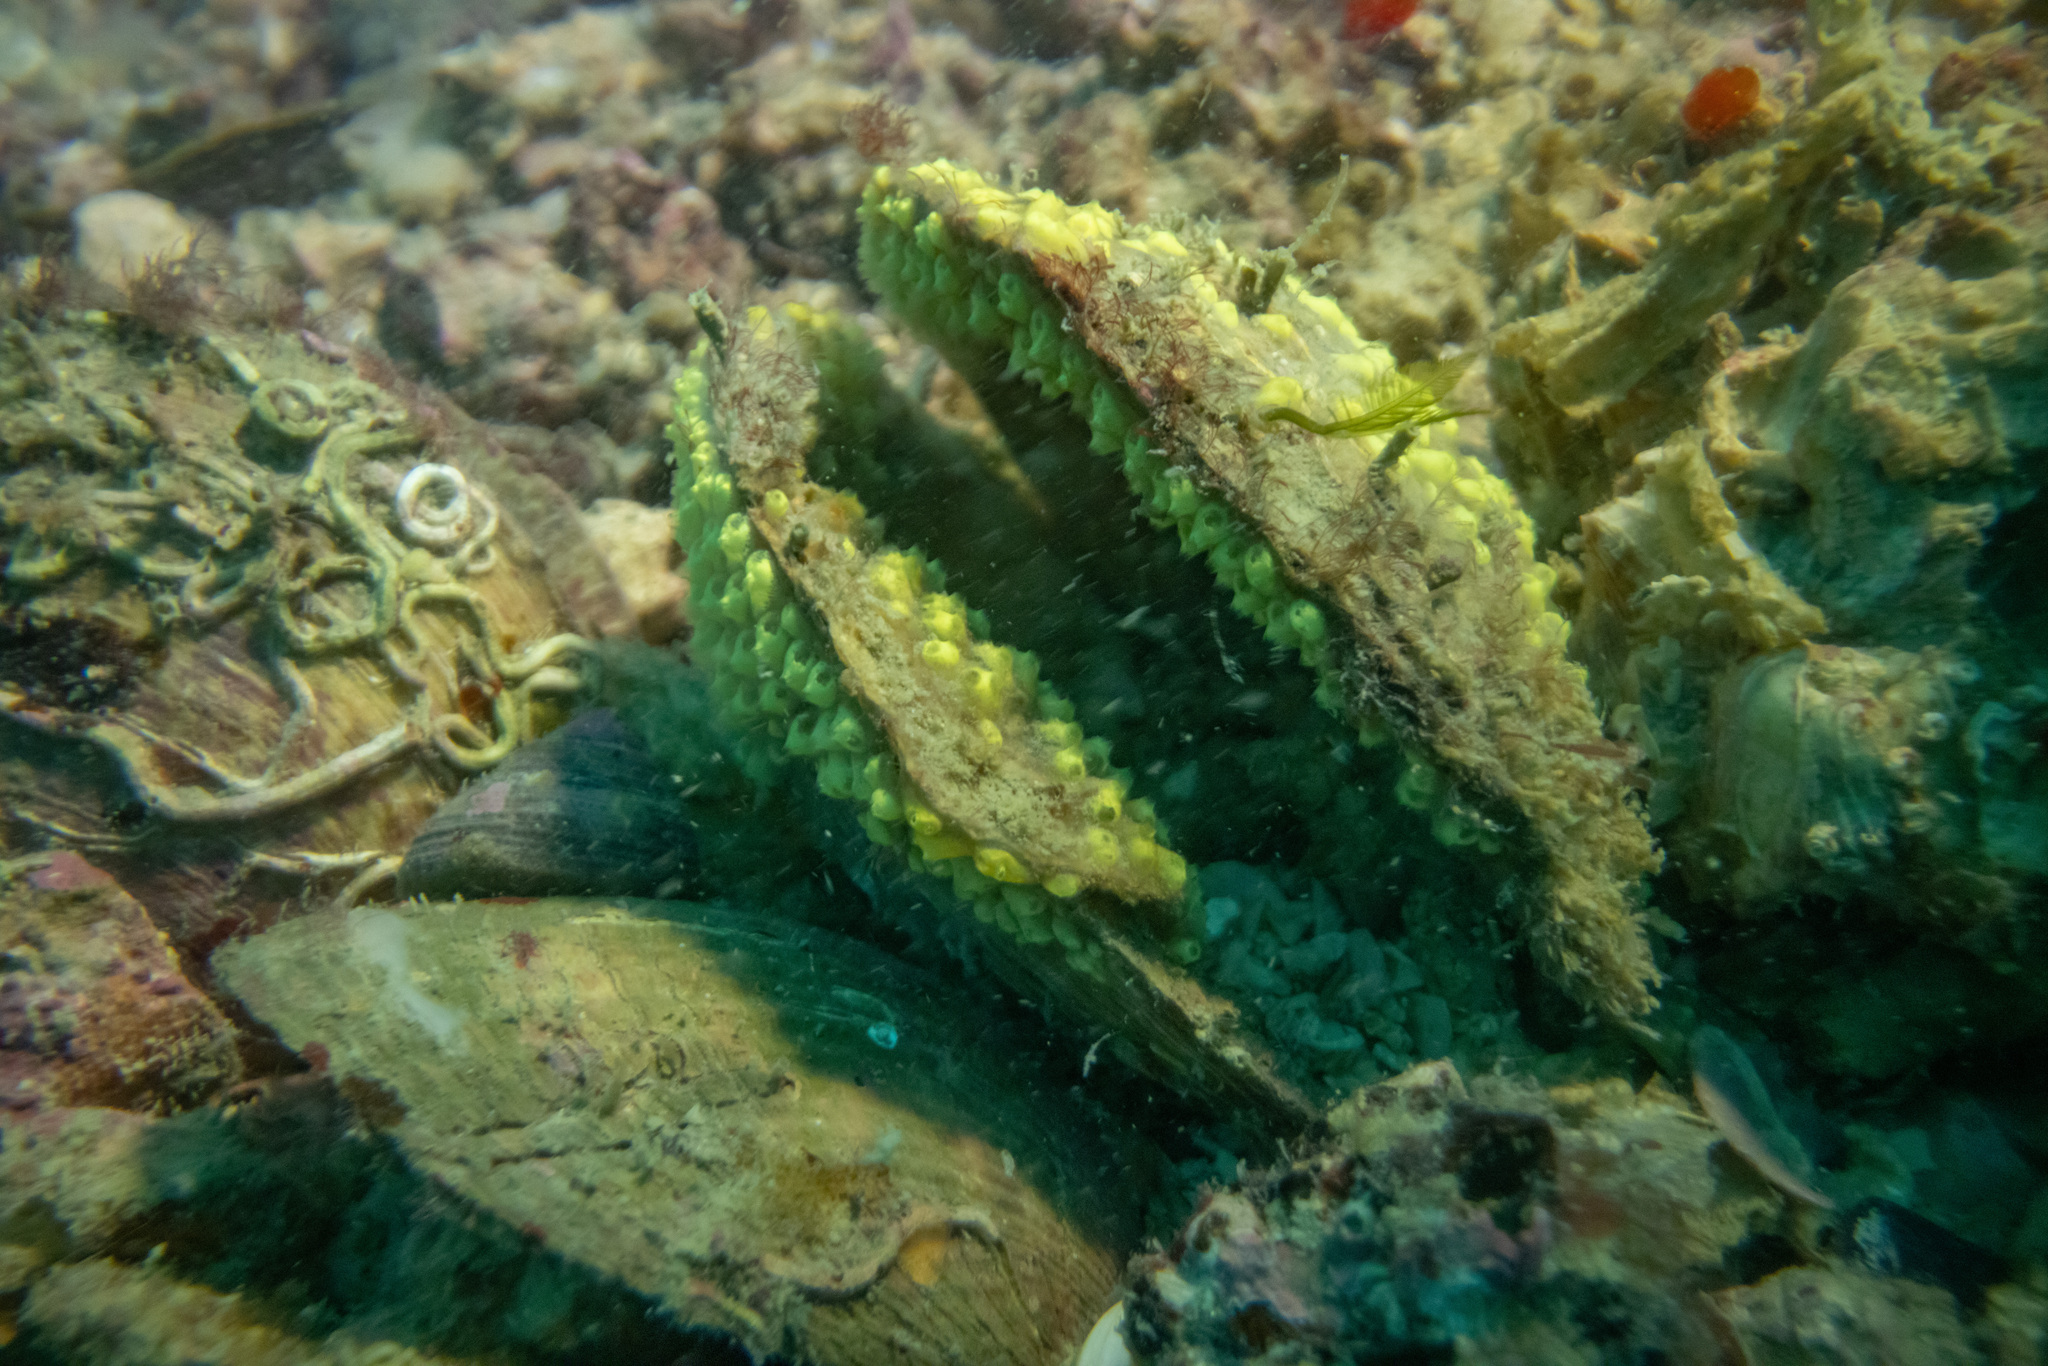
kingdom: Animalia
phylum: Chordata
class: Ascidiacea
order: Stolidobranchia
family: Styelidae
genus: Symplegma
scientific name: Symplegma brakenhielmi
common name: Ascidian
